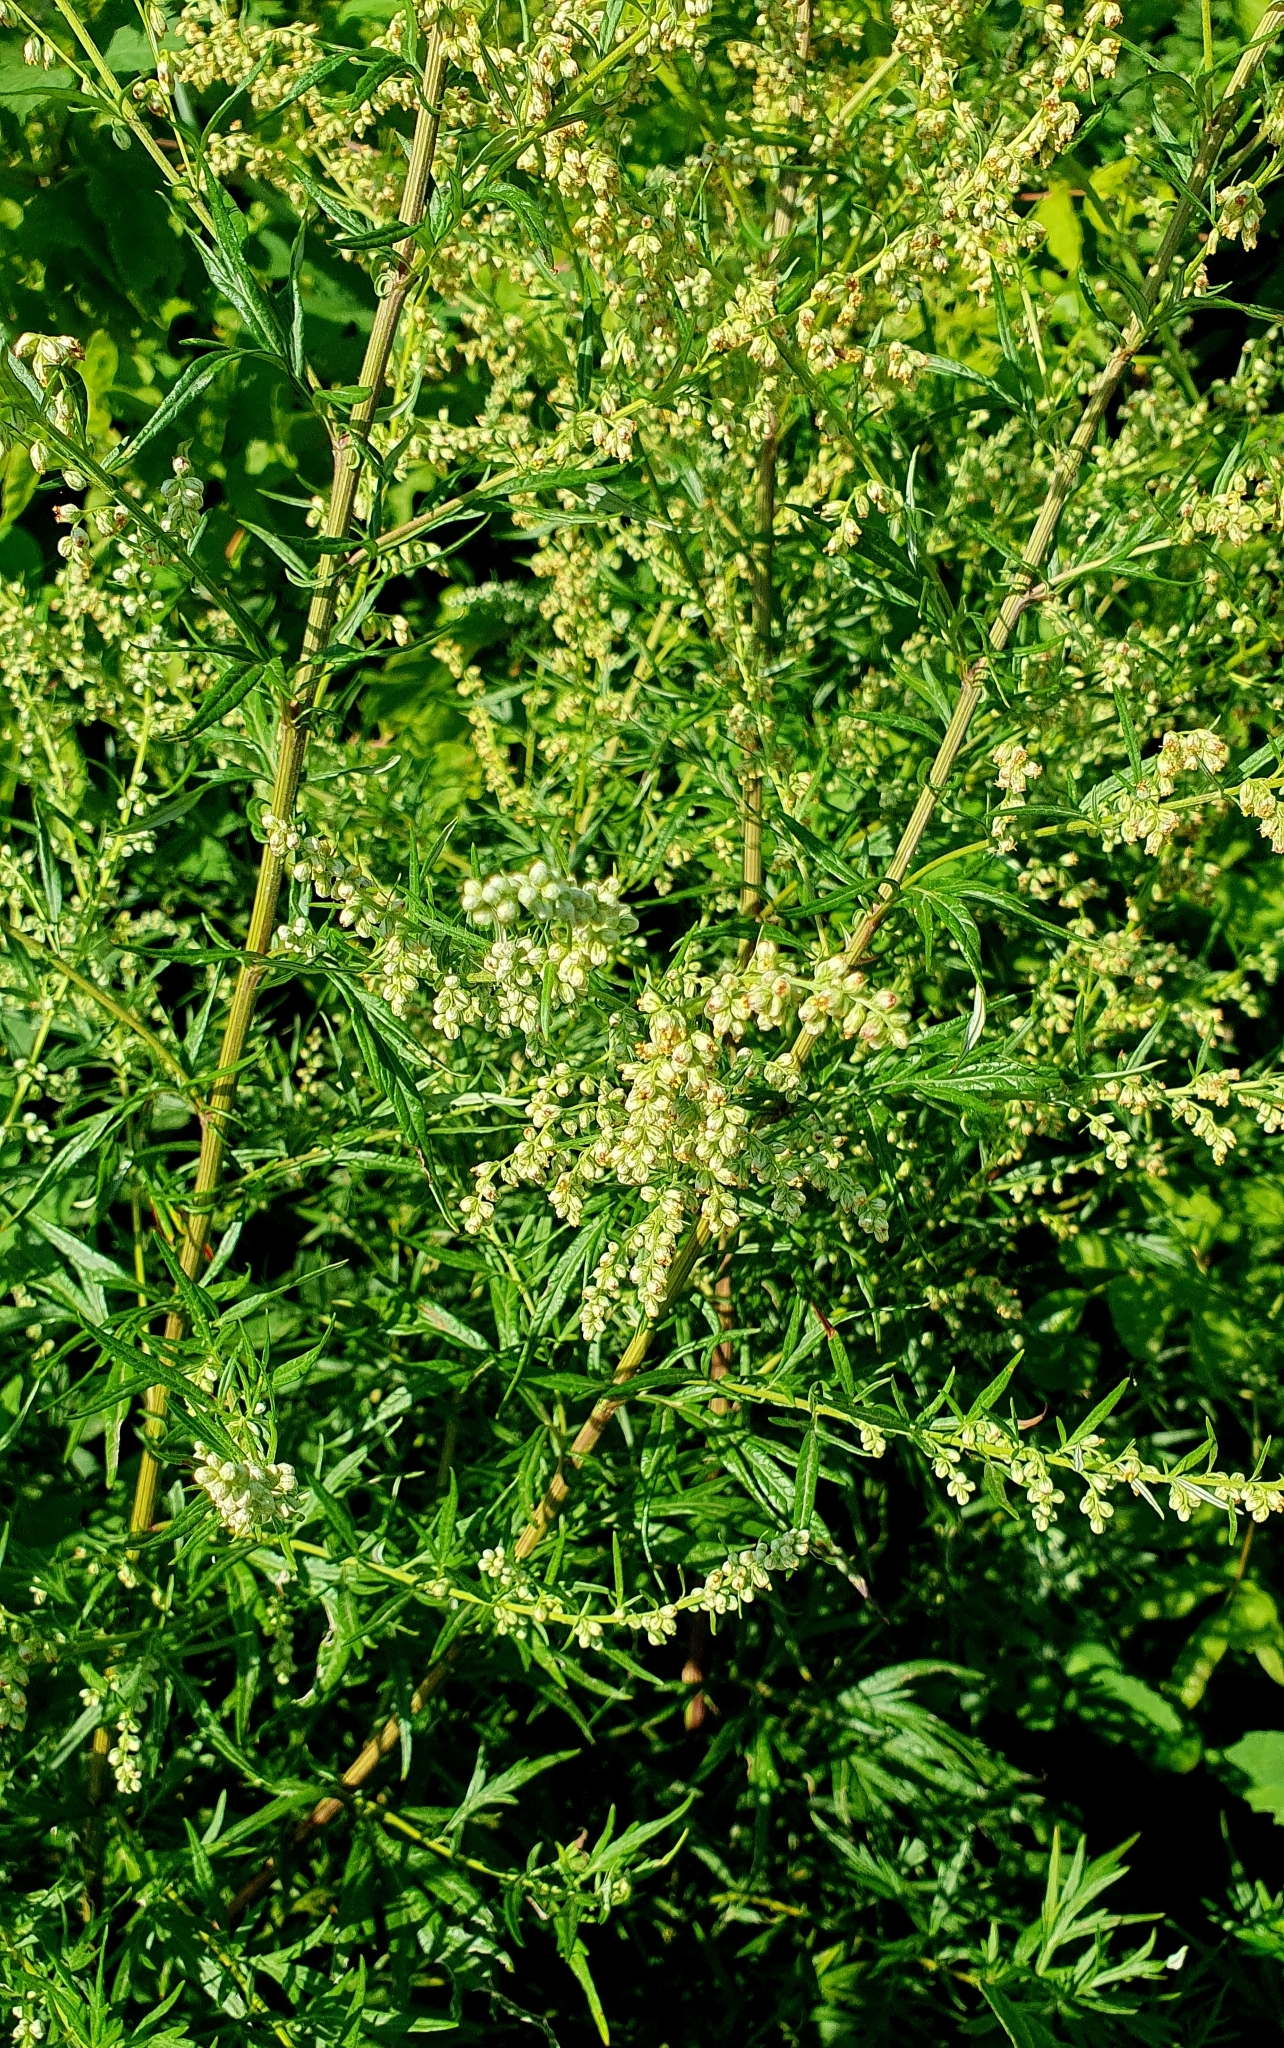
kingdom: Plantae
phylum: Tracheophyta
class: Magnoliopsida
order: Asterales
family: Asteraceae
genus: Artemisia
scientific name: Artemisia vulgaris
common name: Mugwort
